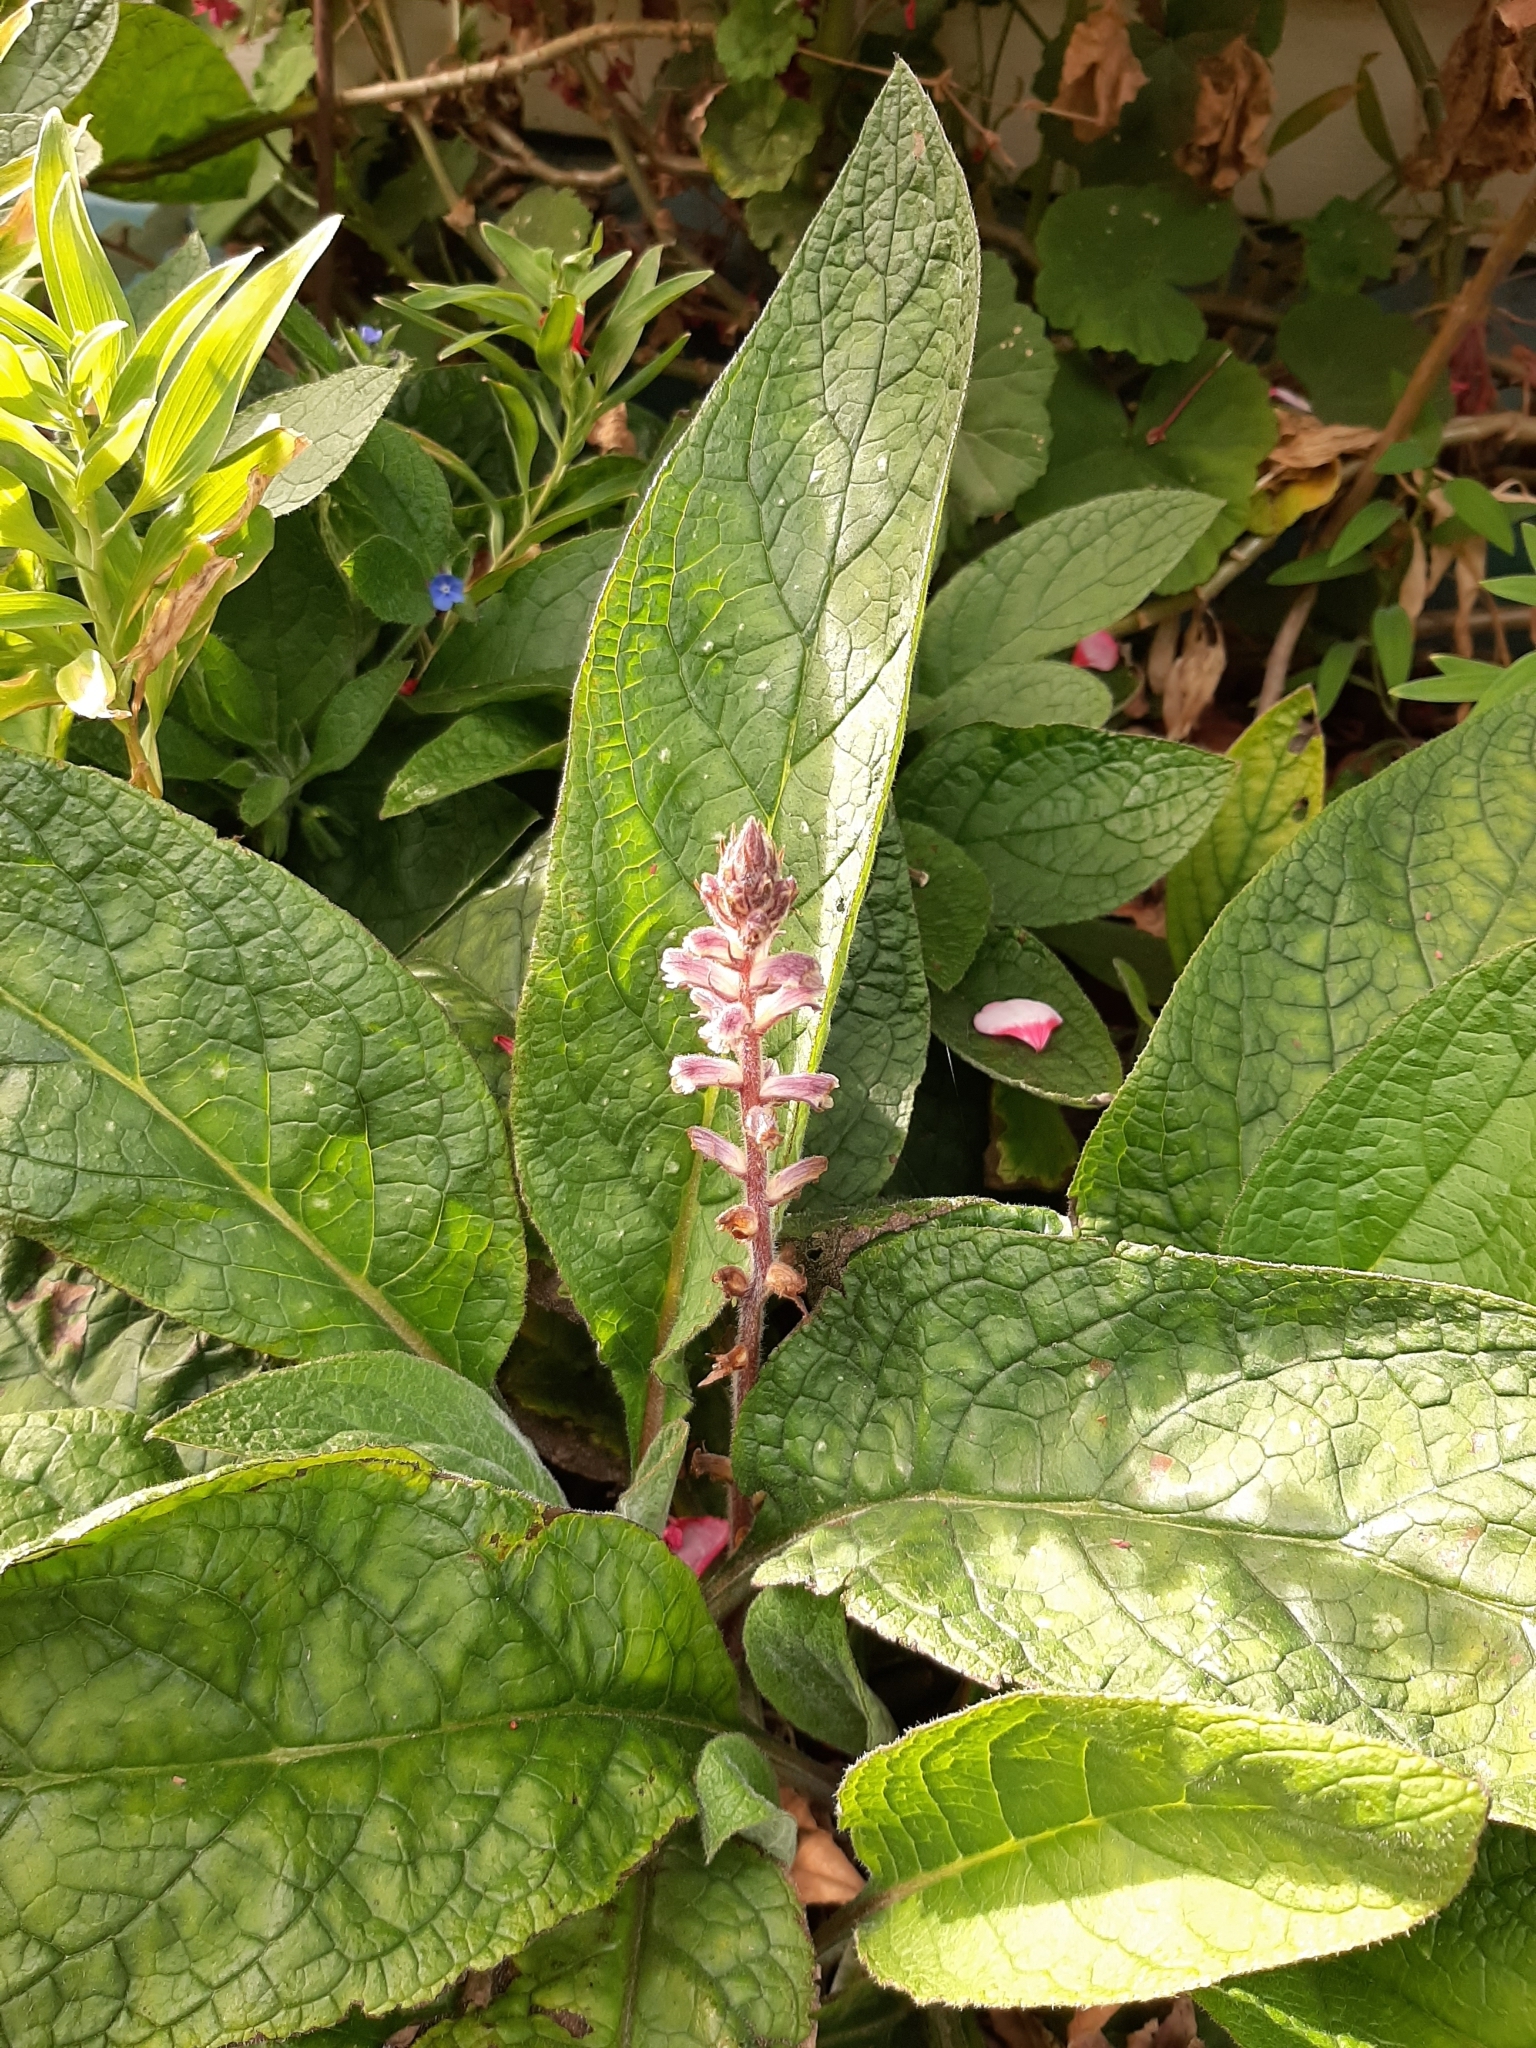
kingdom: Plantae
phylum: Tracheophyta
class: Magnoliopsida
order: Lamiales
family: Orobanchaceae
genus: Orobanche
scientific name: Orobanche minor
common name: Common broomrape
